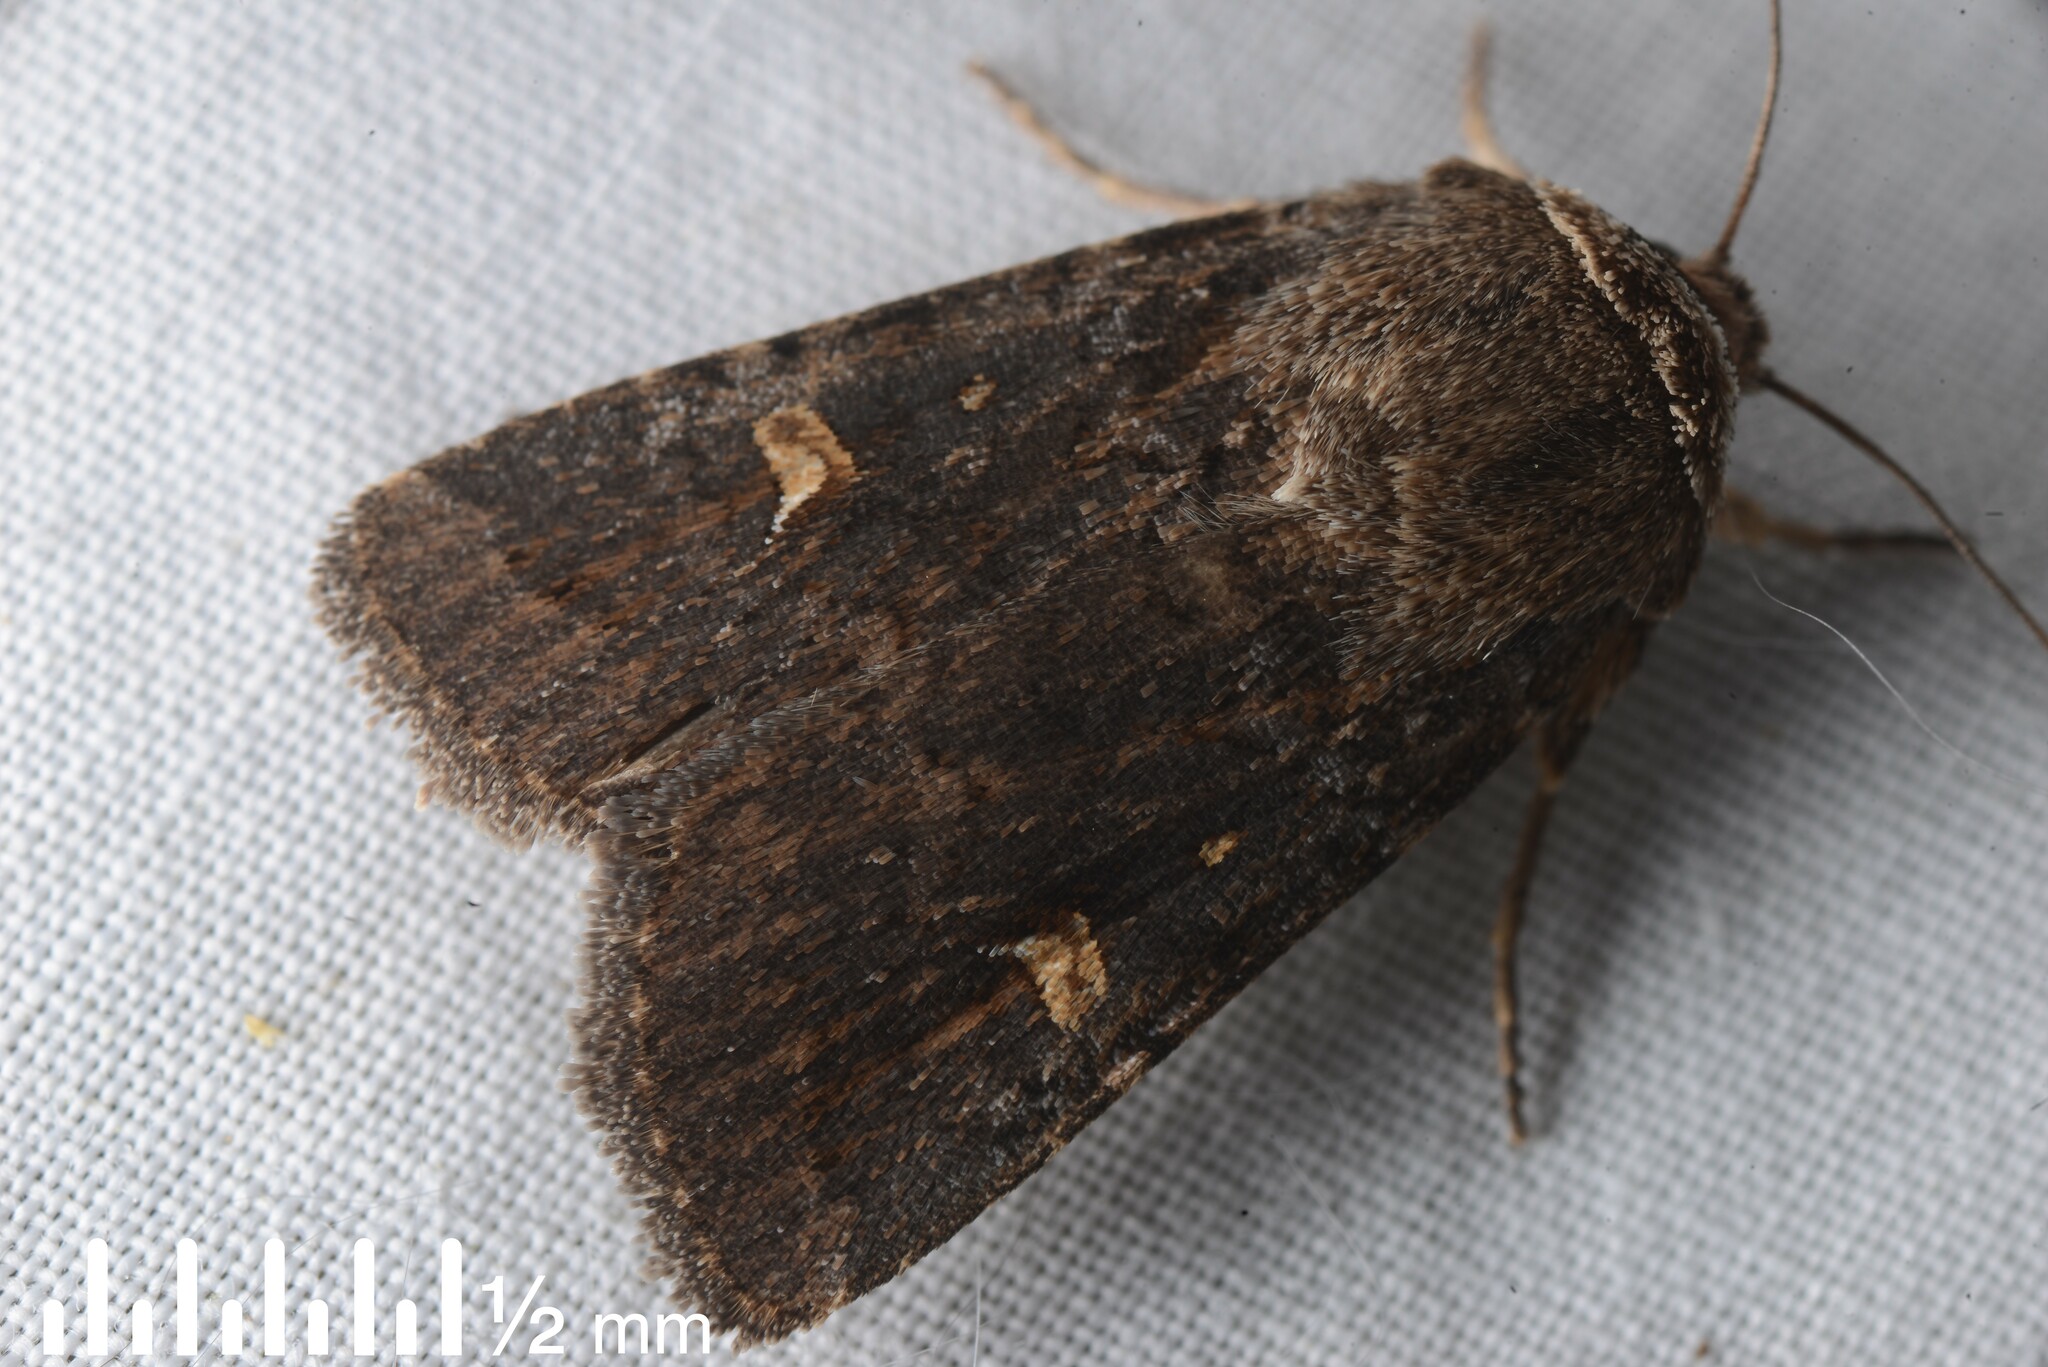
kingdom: Animalia
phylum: Arthropoda
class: Insecta
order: Lepidoptera
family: Noctuidae
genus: Proteuxoa
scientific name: Proteuxoa tetronycha
